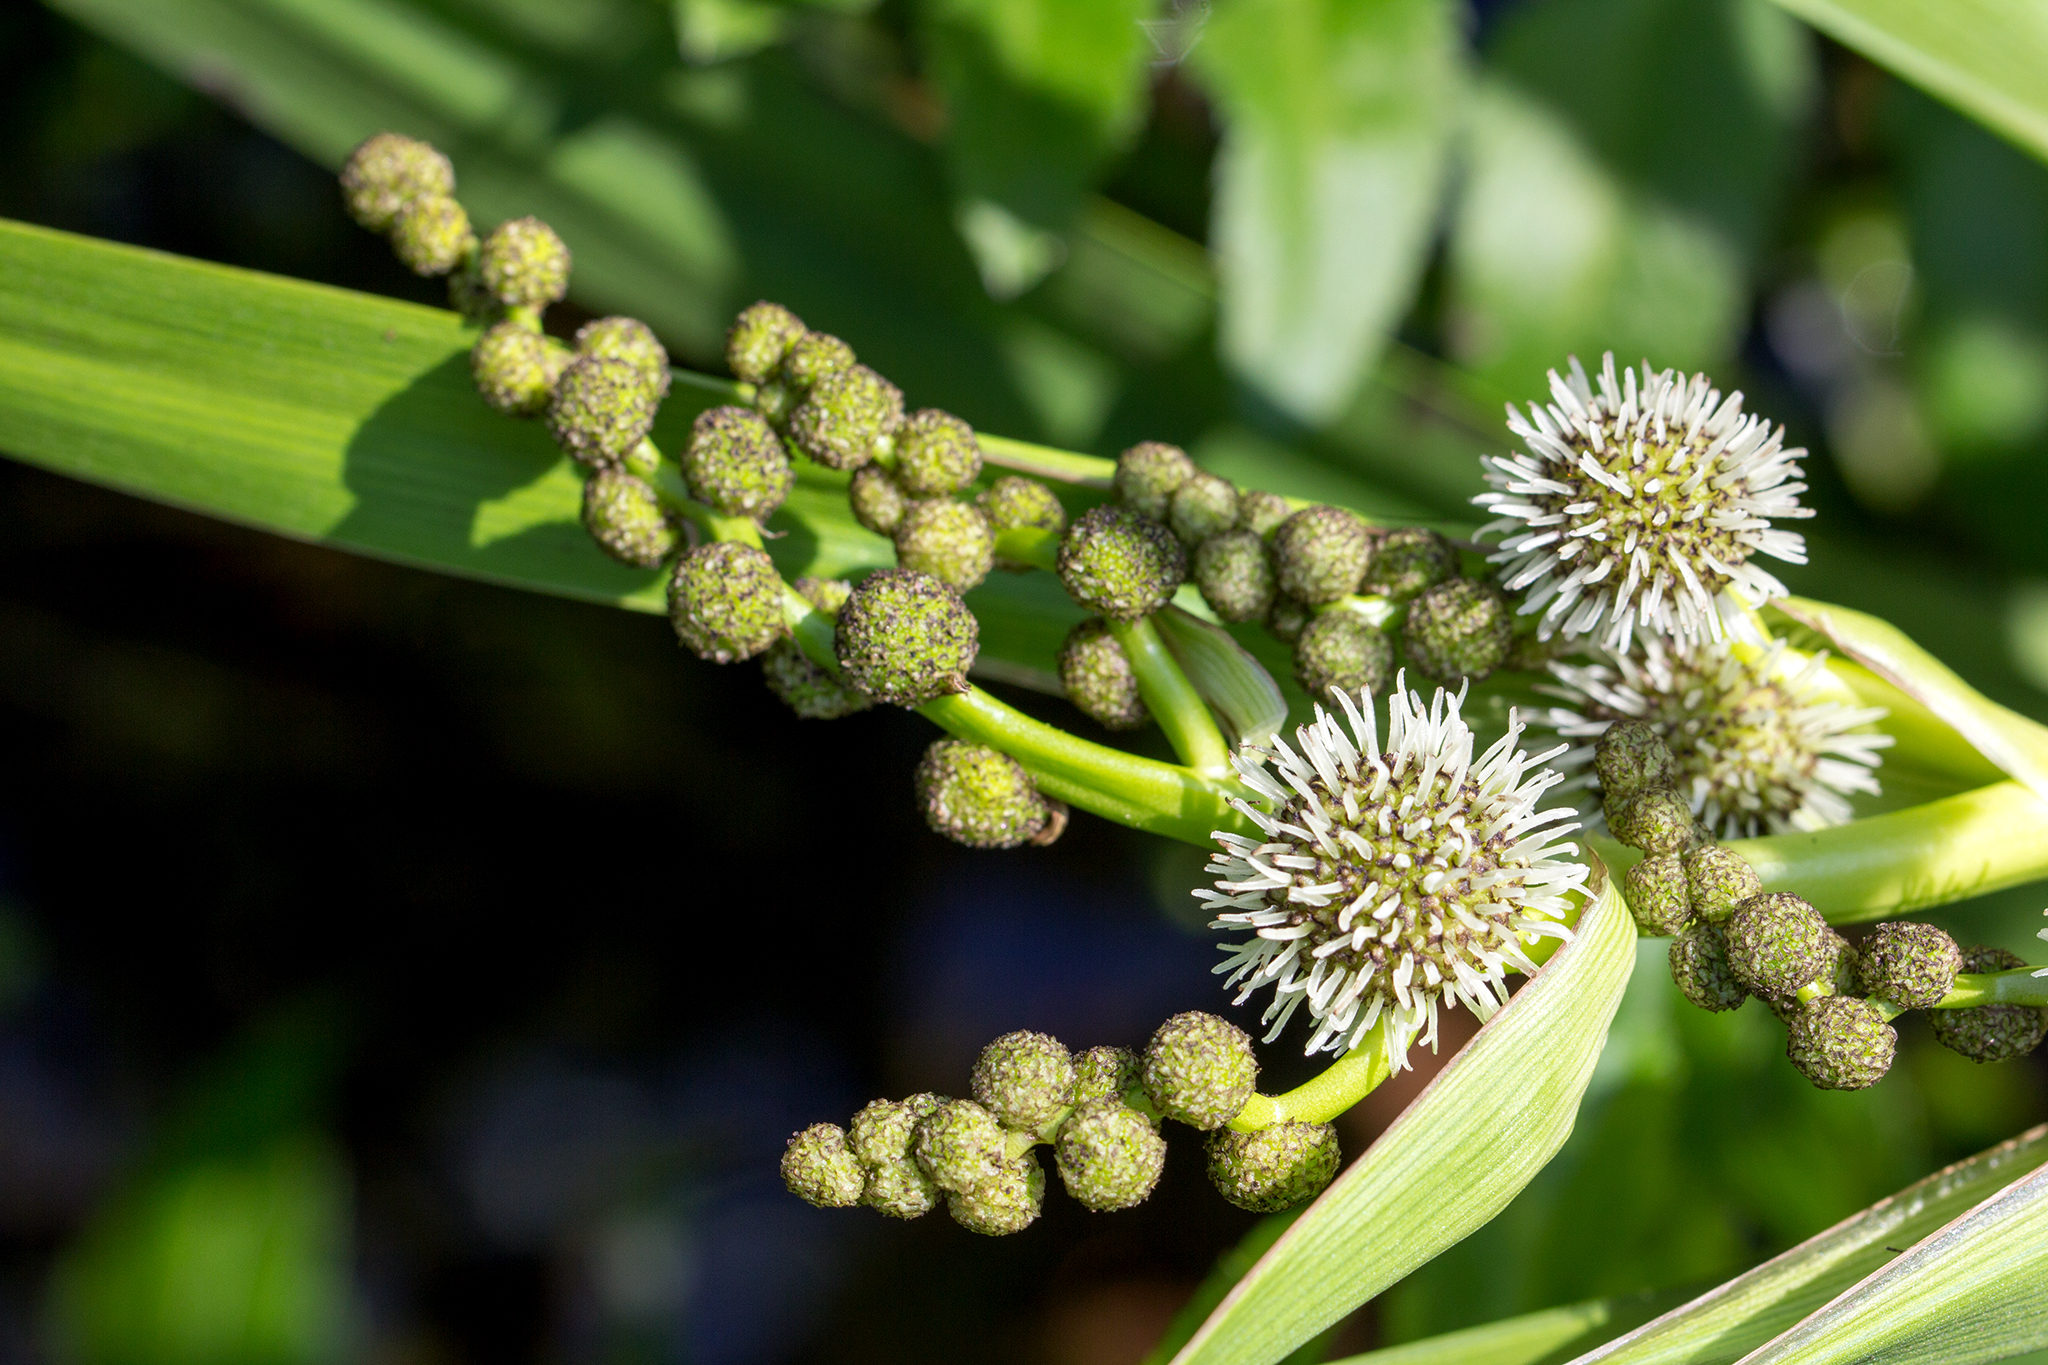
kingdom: Plantae
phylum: Tracheophyta
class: Liliopsida
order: Poales
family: Typhaceae
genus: Sparganium
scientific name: Sparganium erectum
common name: Branched bur-reed
